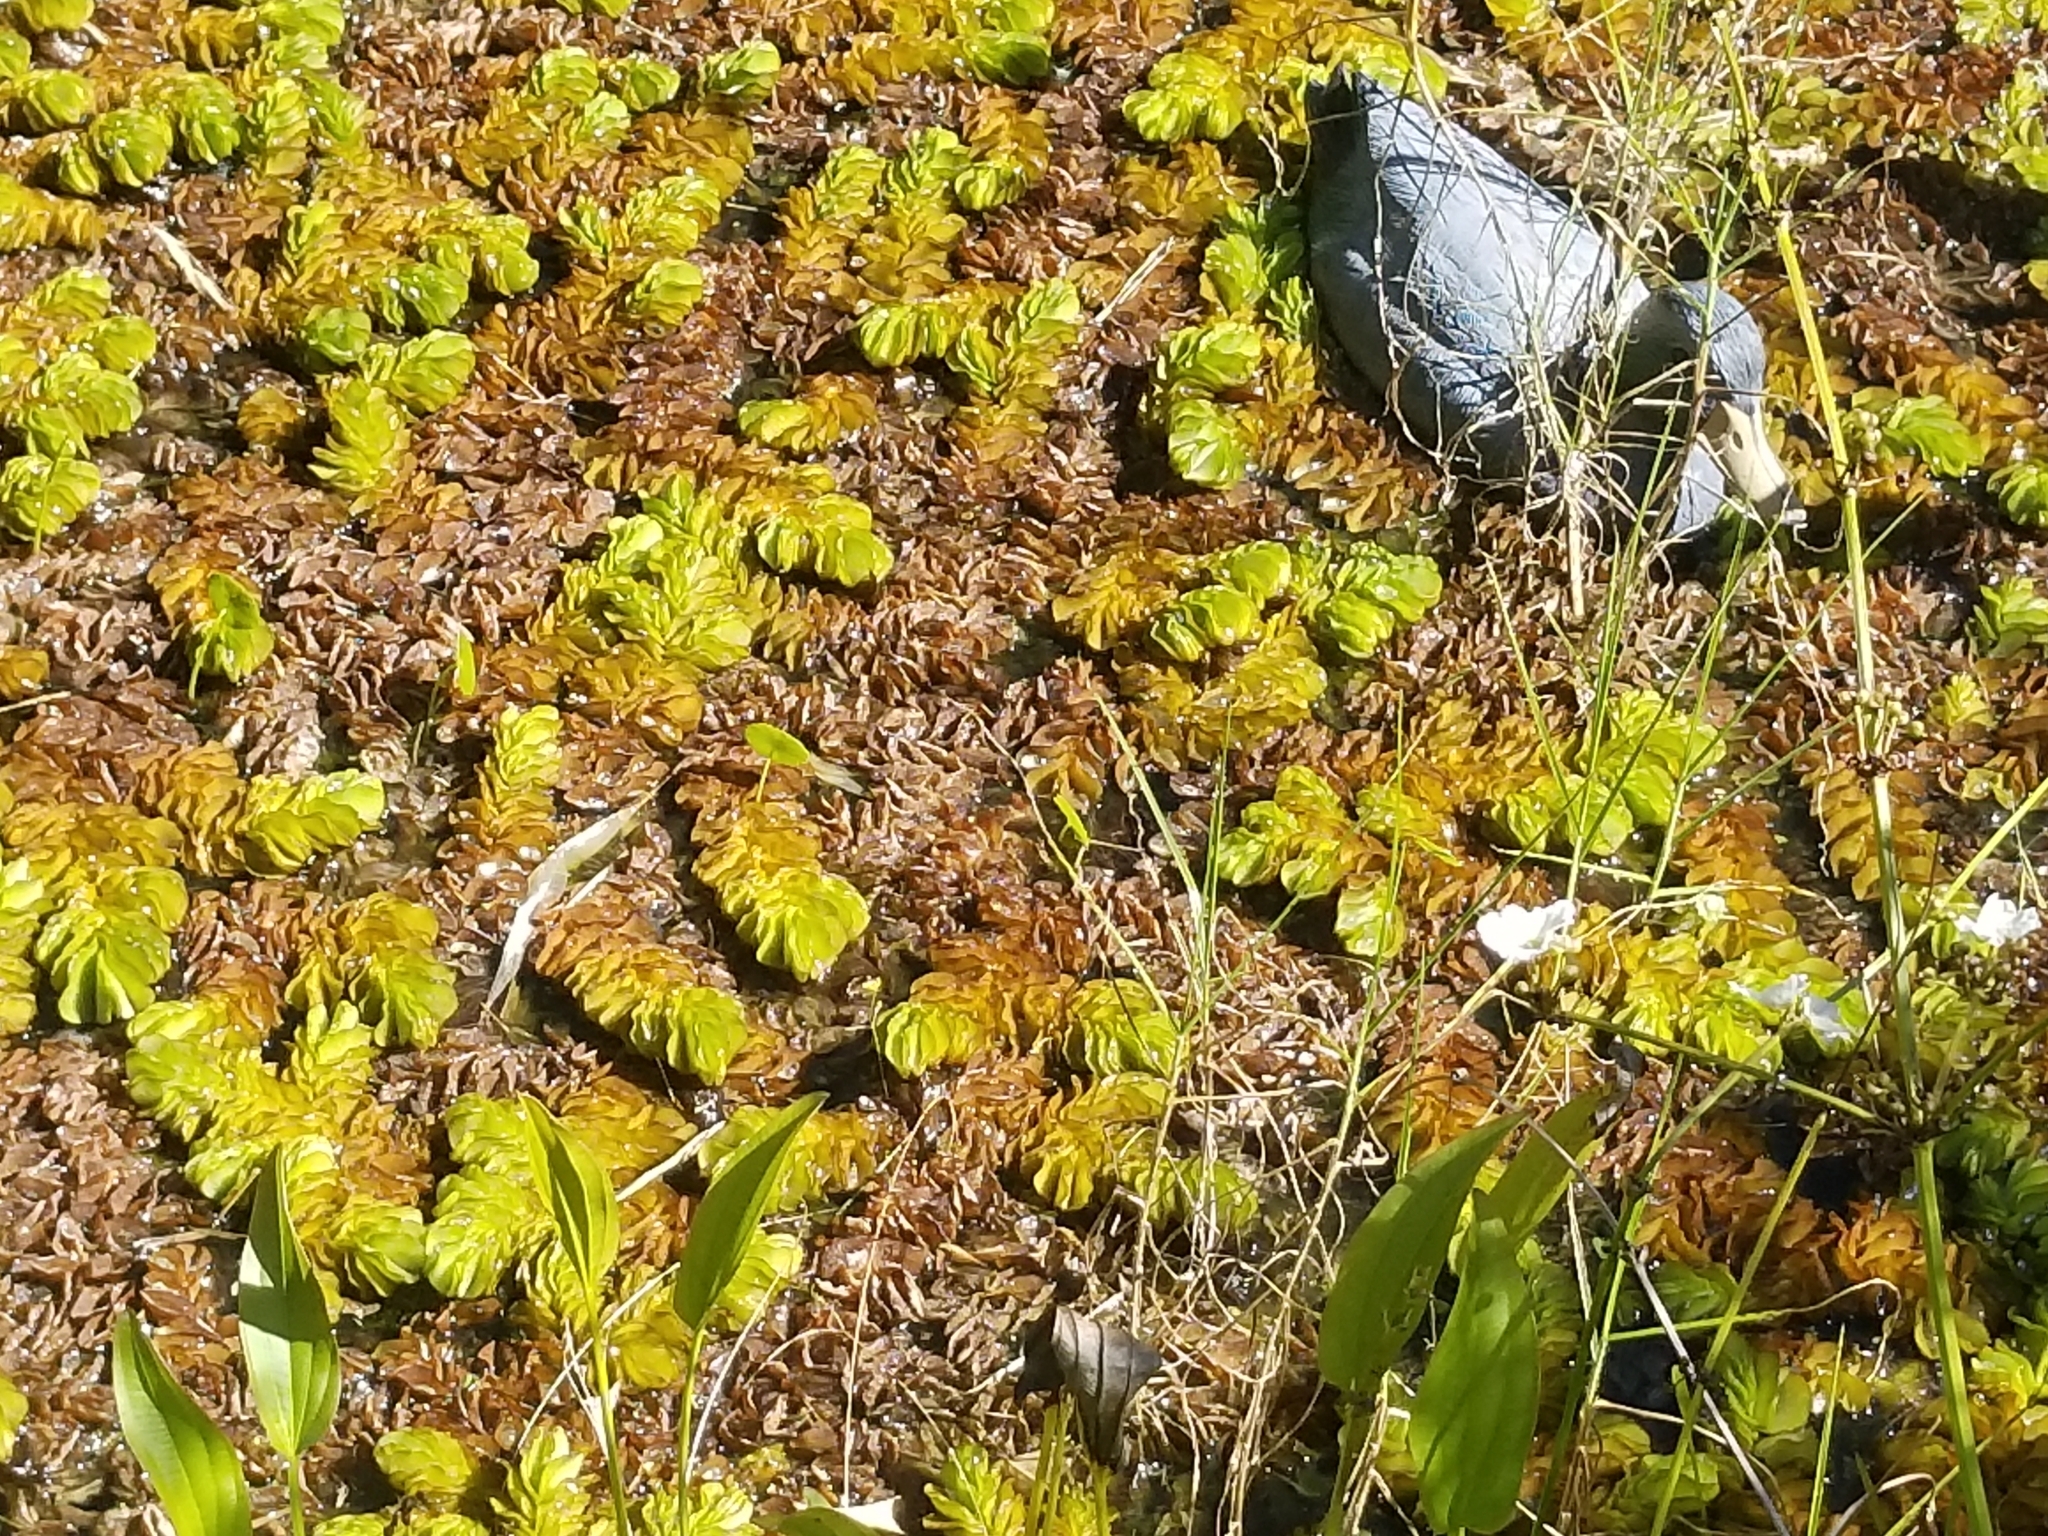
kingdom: Plantae
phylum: Tracheophyta
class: Polypodiopsida
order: Salviniales
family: Salviniaceae
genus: Salvinia
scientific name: Salvinia molesta
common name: Kariba weed
